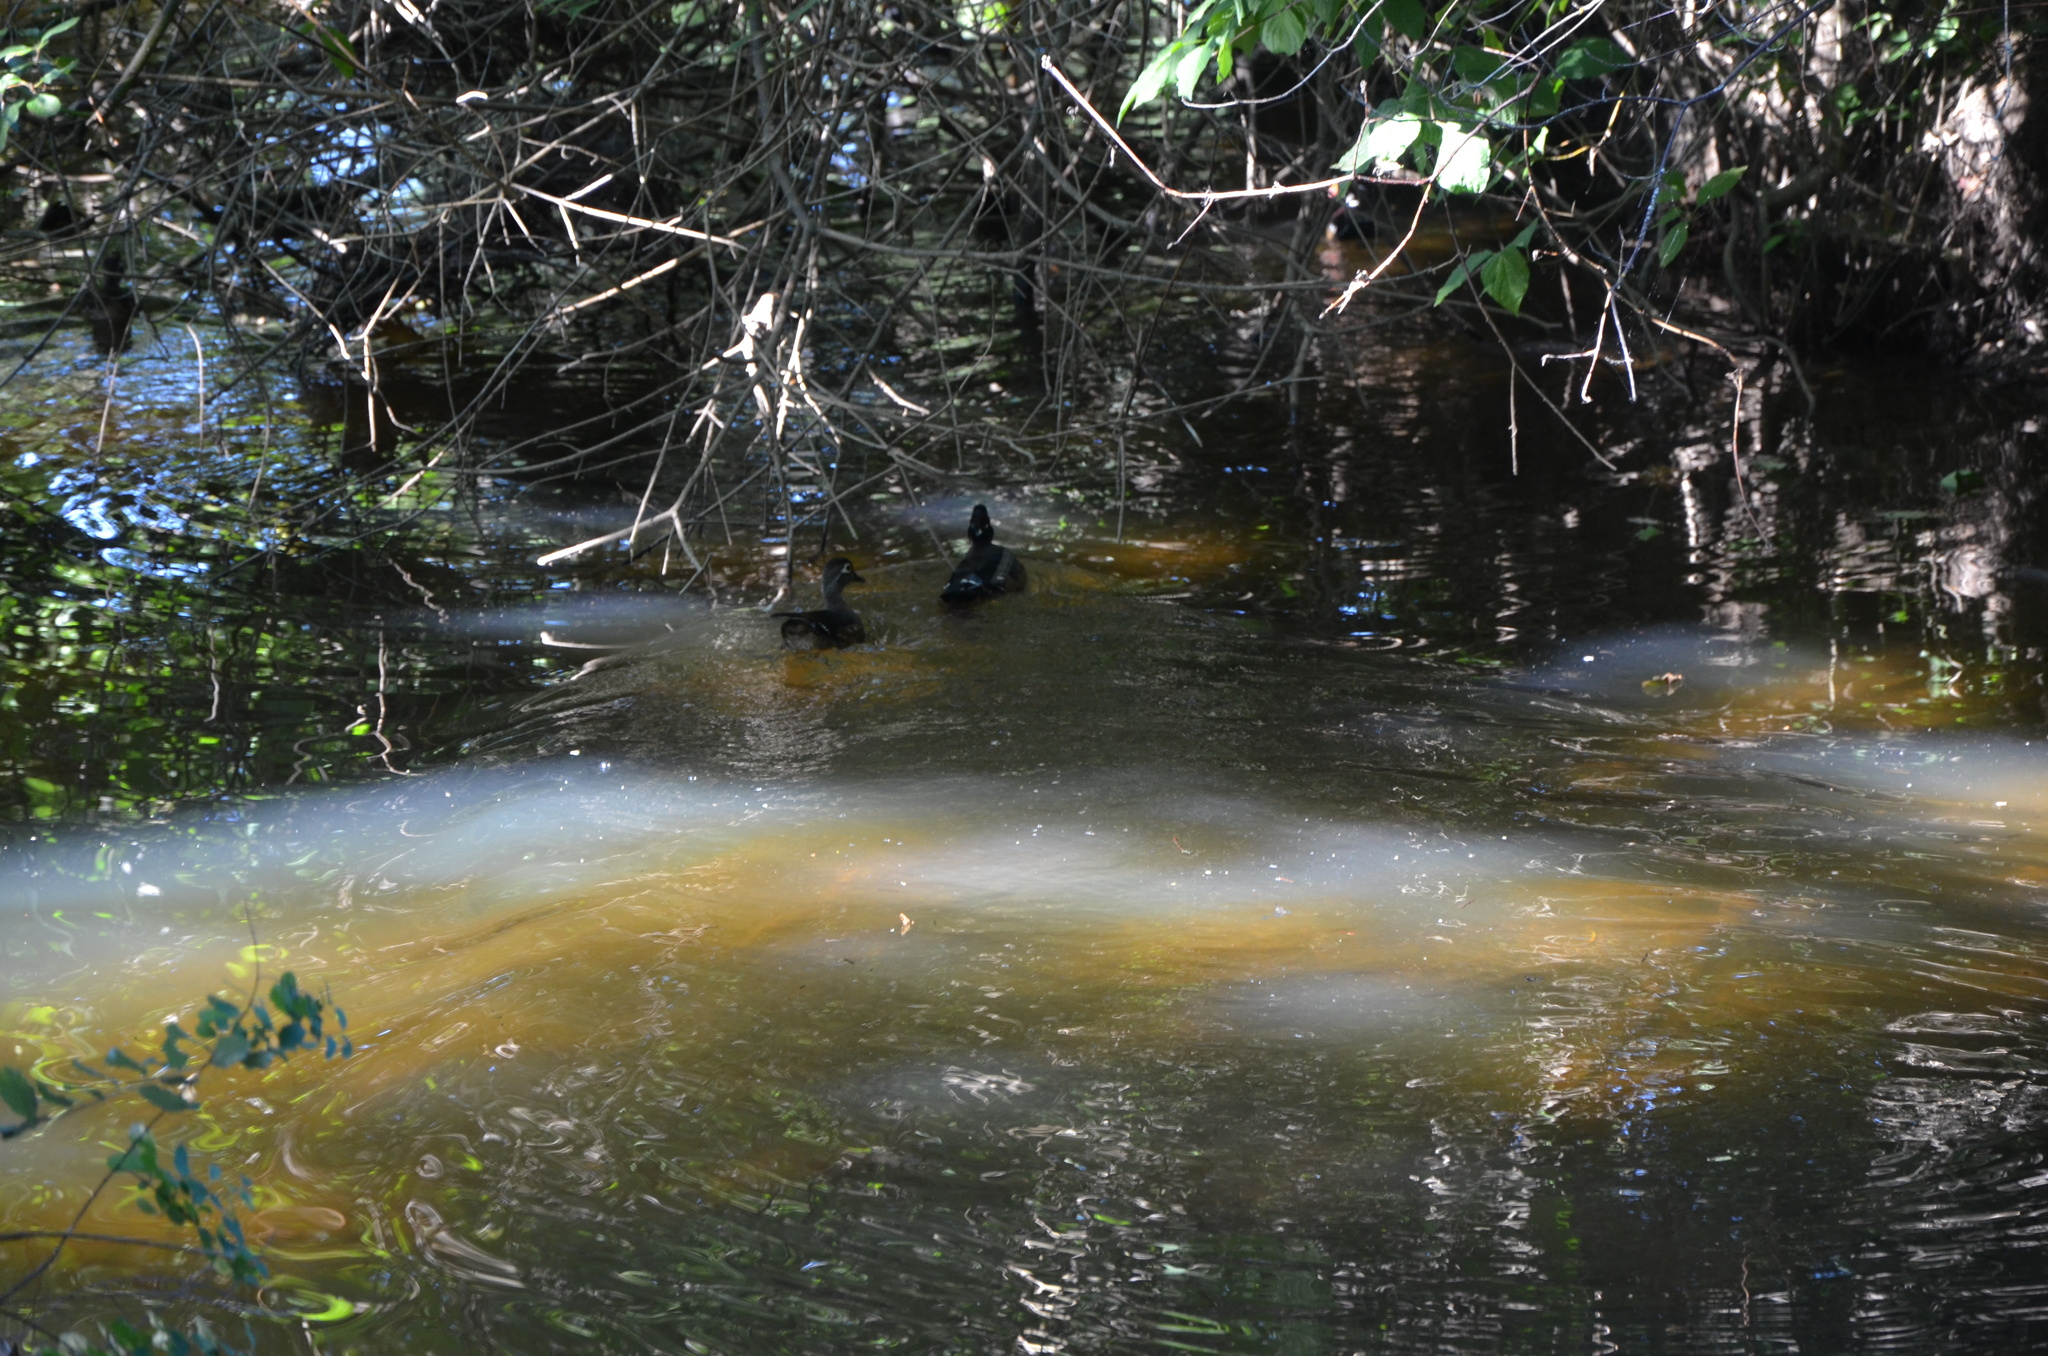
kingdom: Animalia
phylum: Chordata
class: Aves
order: Anseriformes
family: Anatidae
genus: Aix
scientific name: Aix sponsa
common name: Wood duck
